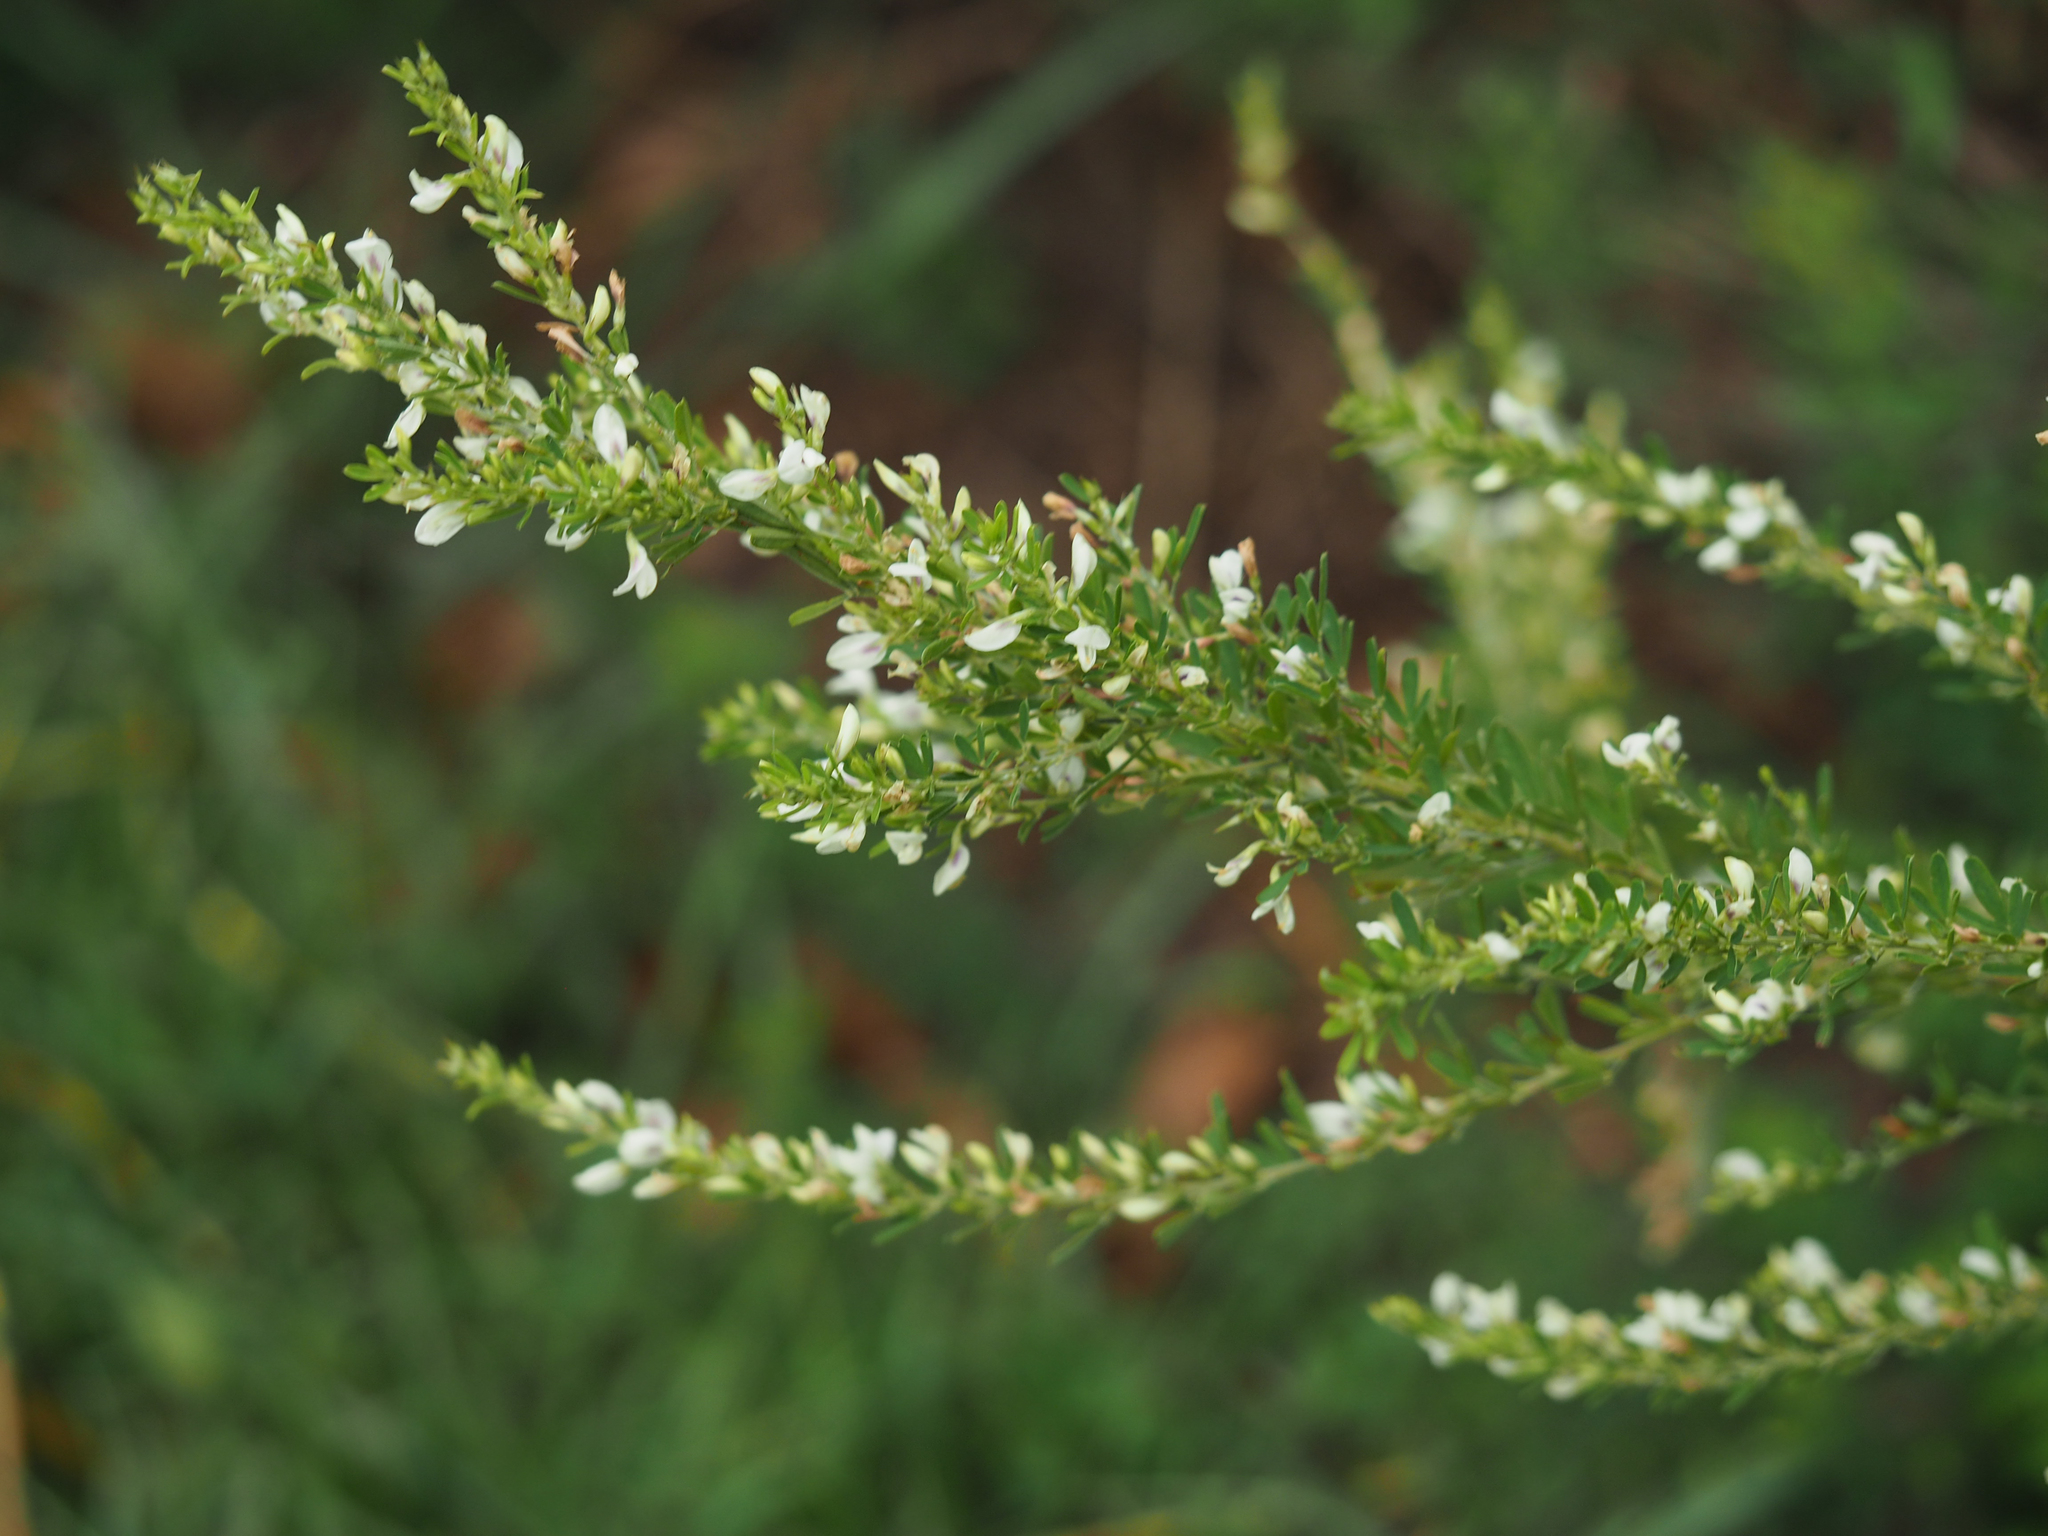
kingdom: Plantae
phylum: Tracheophyta
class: Magnoliopsida
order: Fabales
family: Fabaceae
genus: Lespedeza
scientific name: Lespedeza cuneata
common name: Chinese bush-clover
